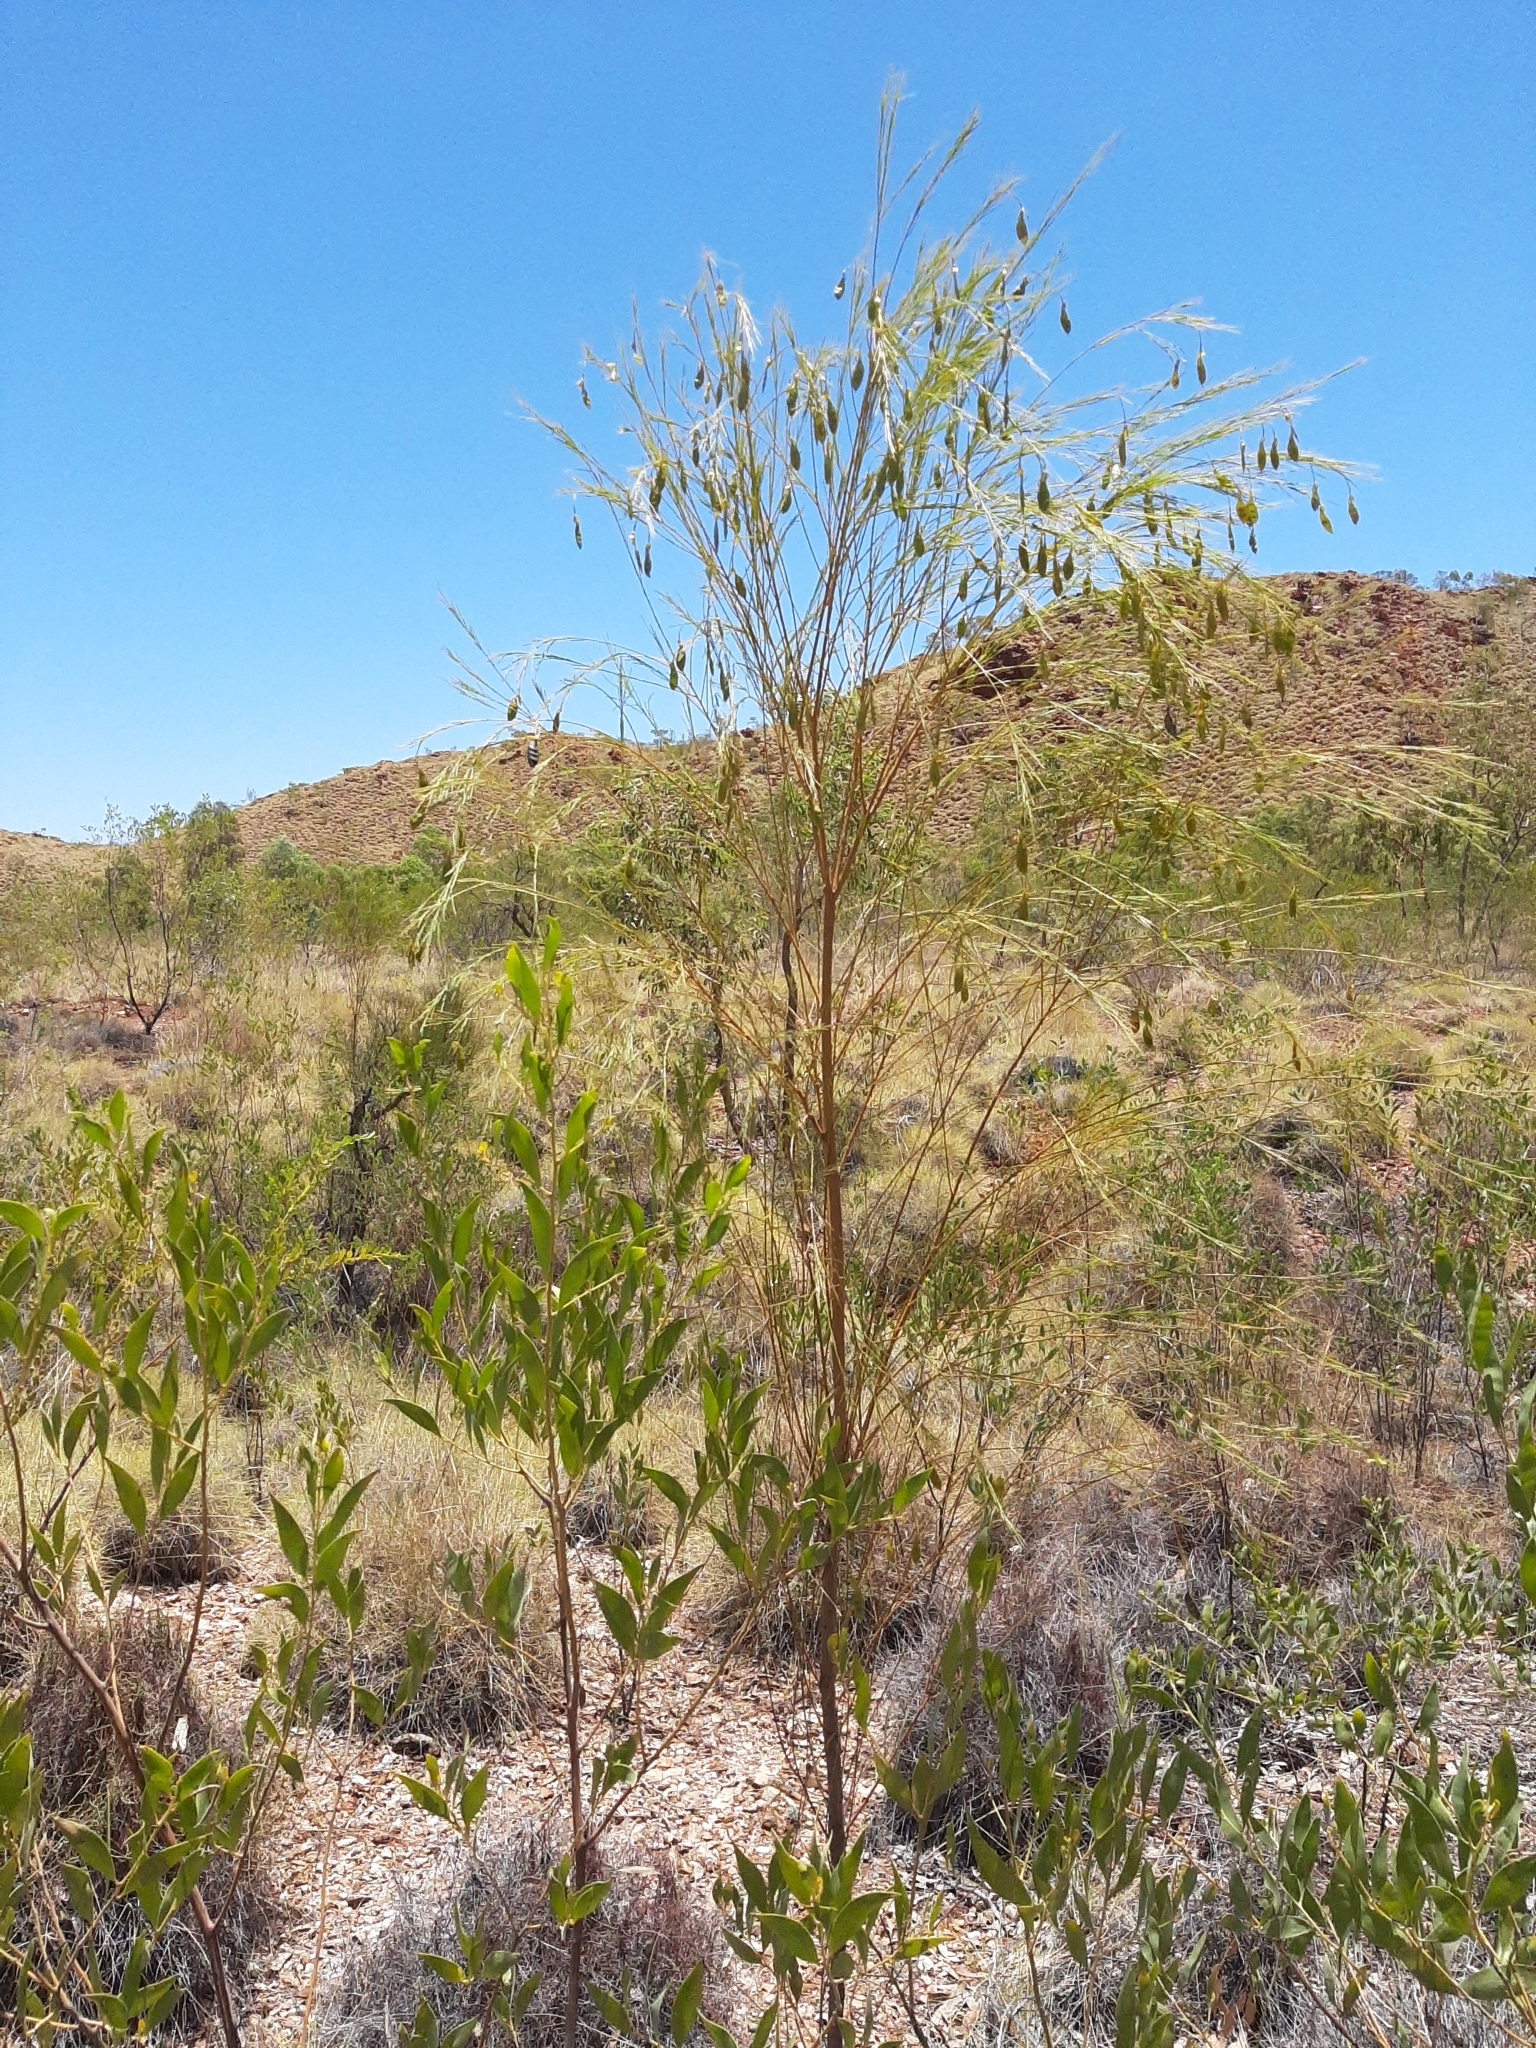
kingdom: Plantae
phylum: Tracheophyta
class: Magnoliopsida
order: Fabales
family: Fabaceae
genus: Templetonia
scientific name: Templetonia hookeri
